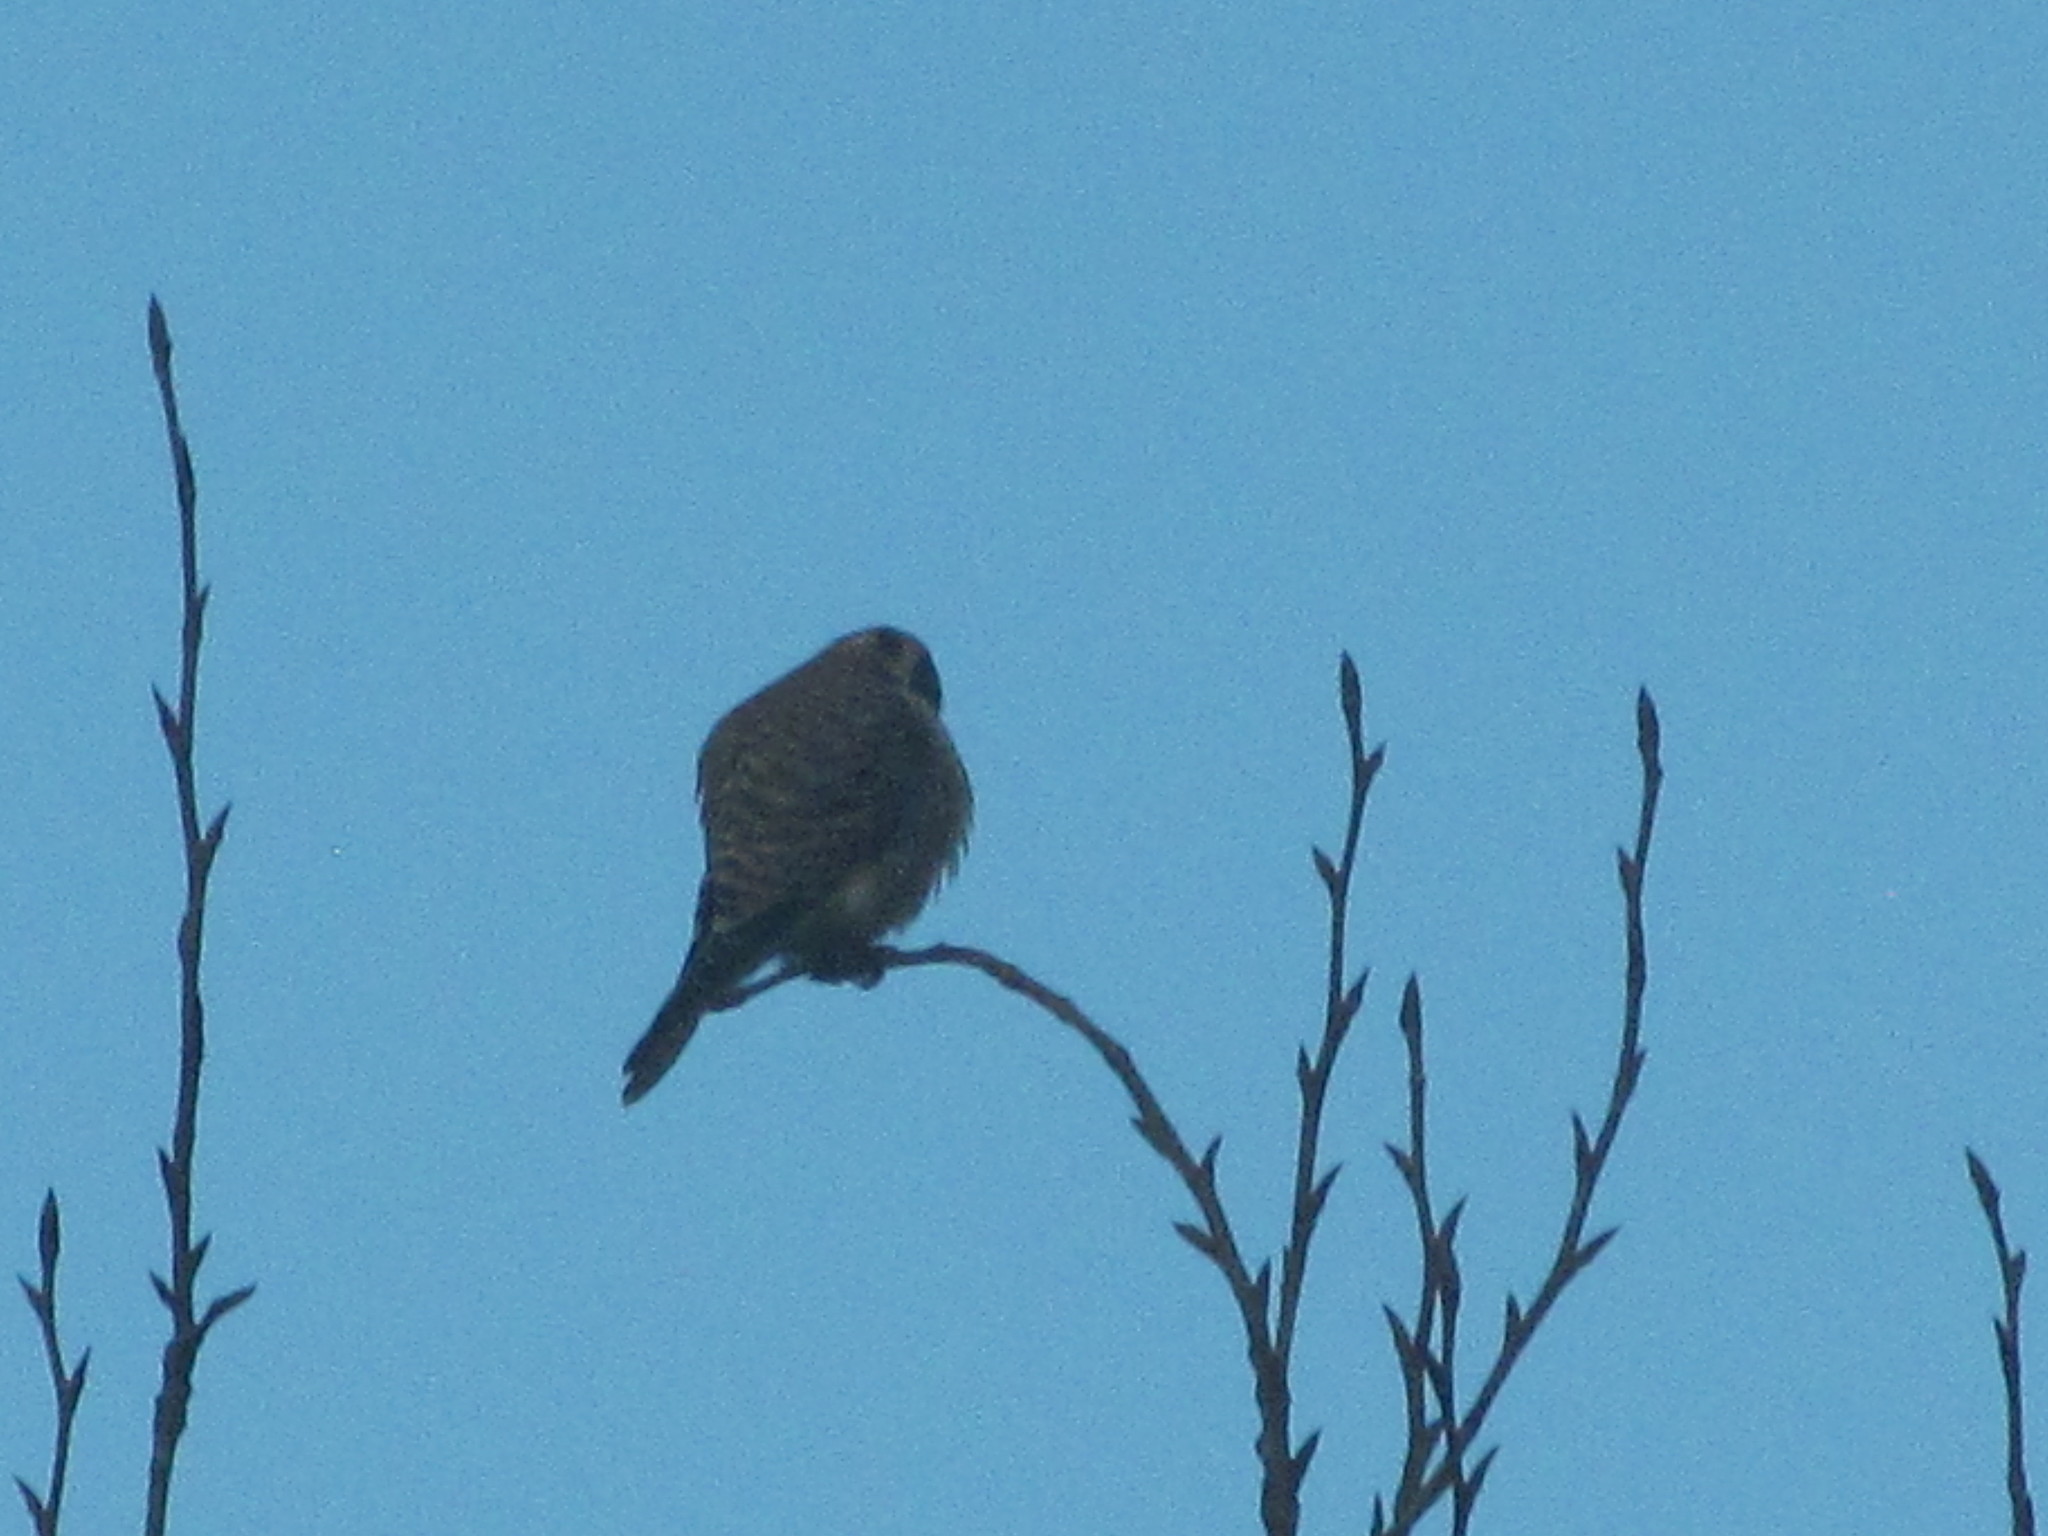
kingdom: Animalia
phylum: Chordata
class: Aves
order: Falconiformes
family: Falconidae
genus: Falco
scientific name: Falco sparverius
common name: American kestrel
